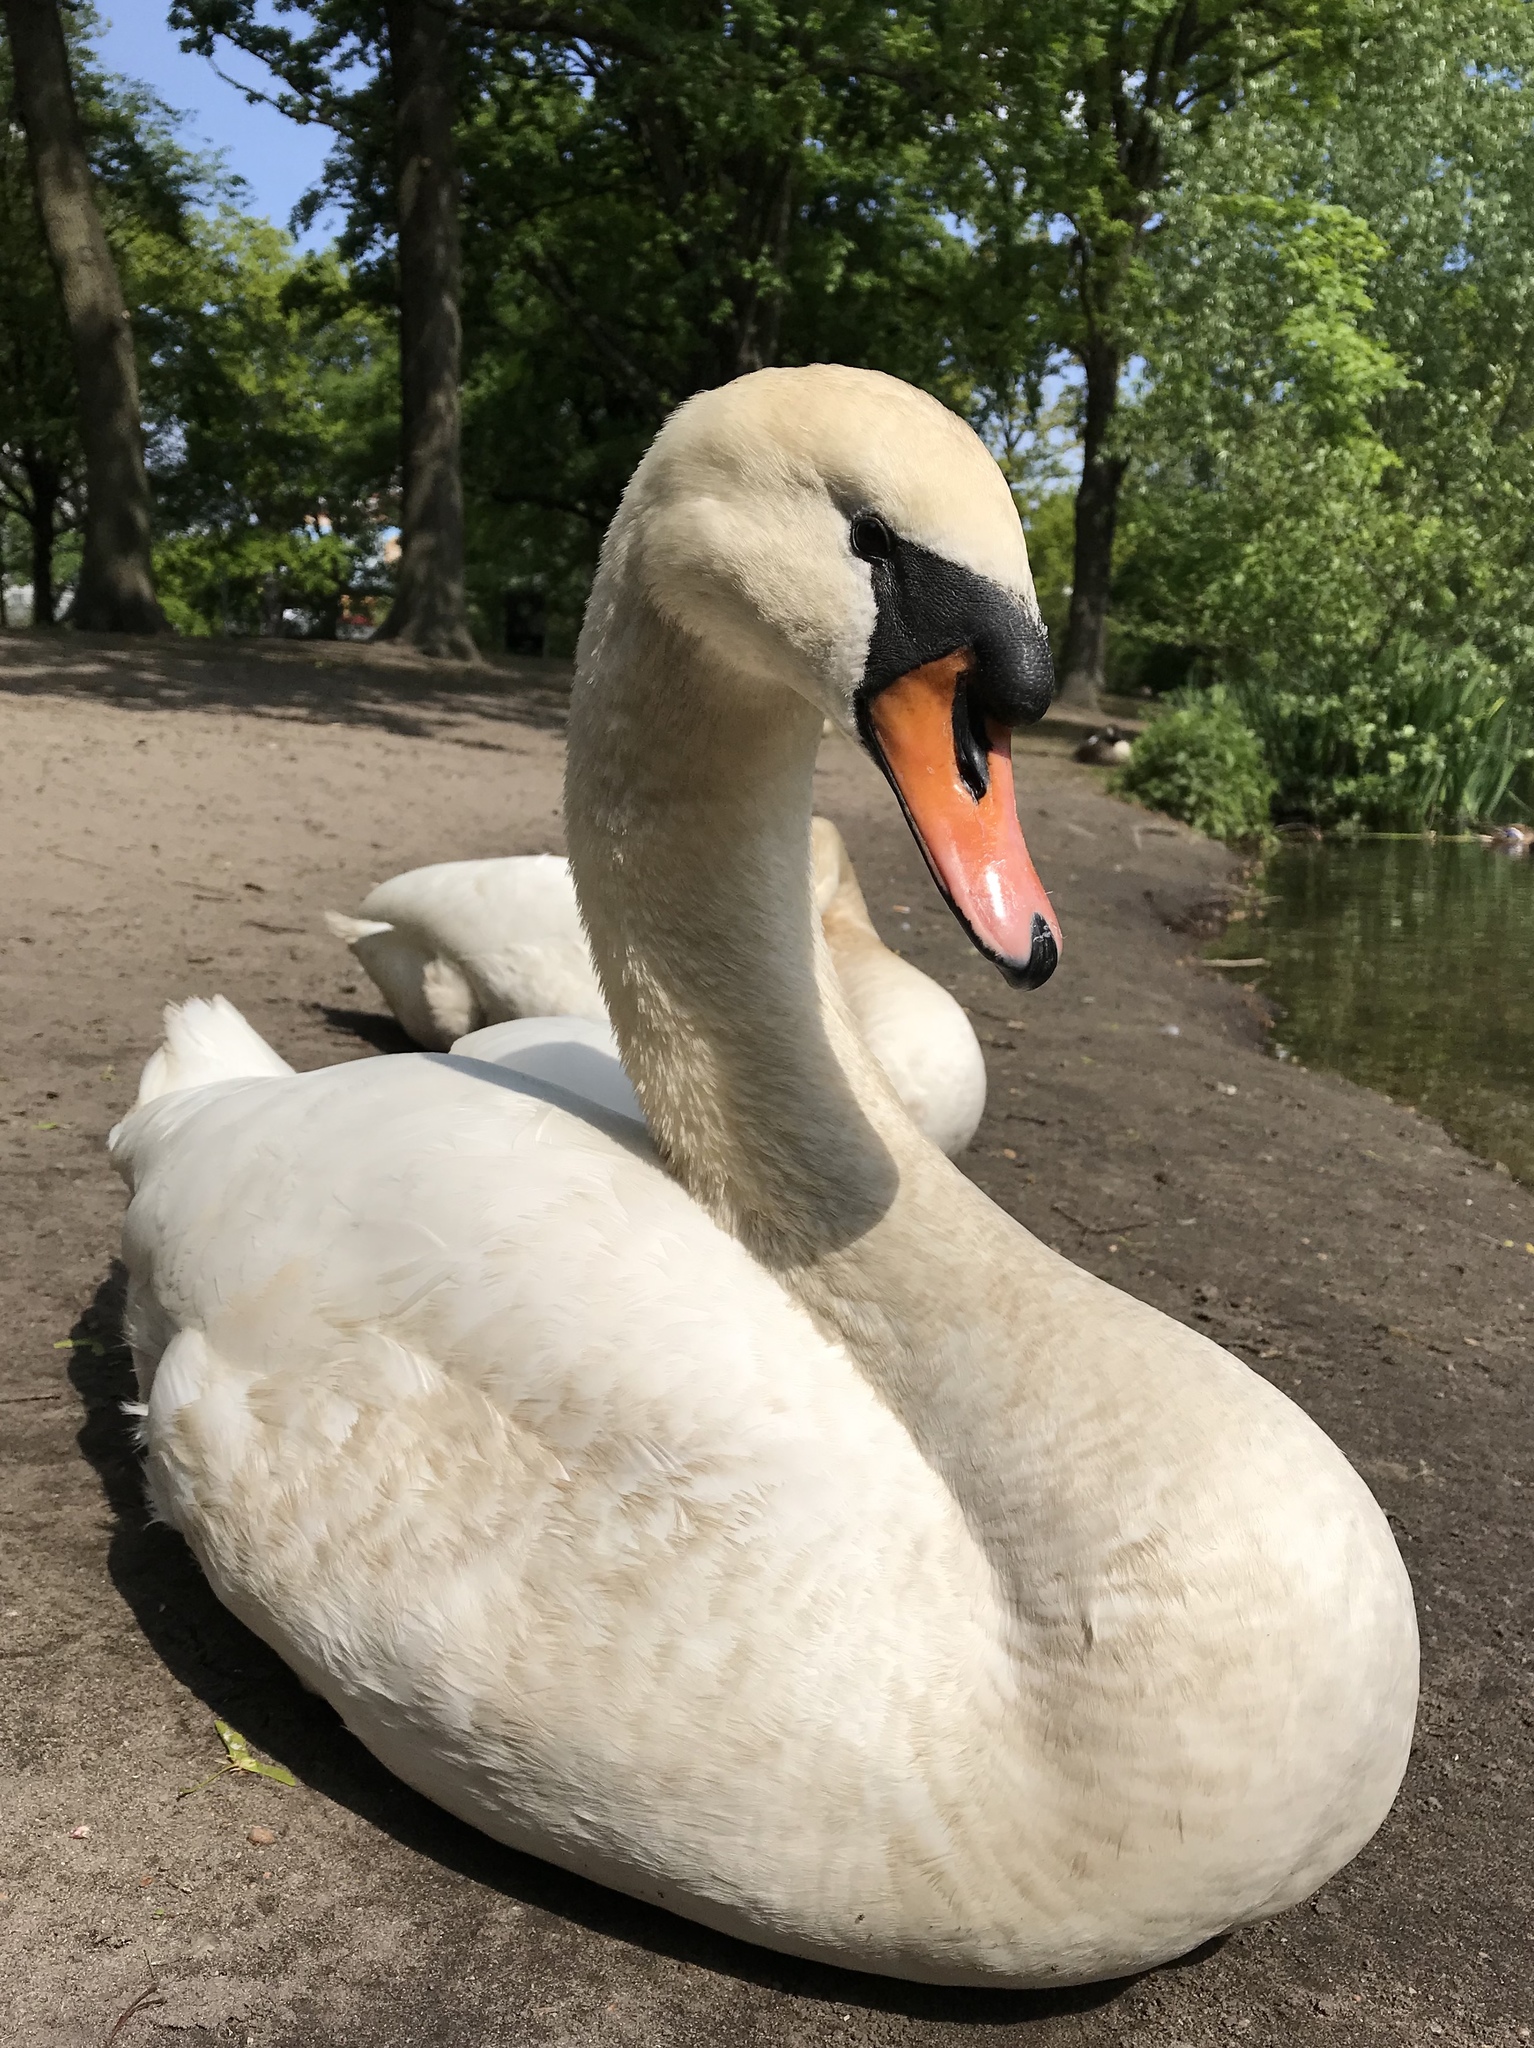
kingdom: Animalia
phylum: Chordata
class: Aves
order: Anseriformes
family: Anatidae
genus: Cygnus
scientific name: Cygnus olor
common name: Mute swan
